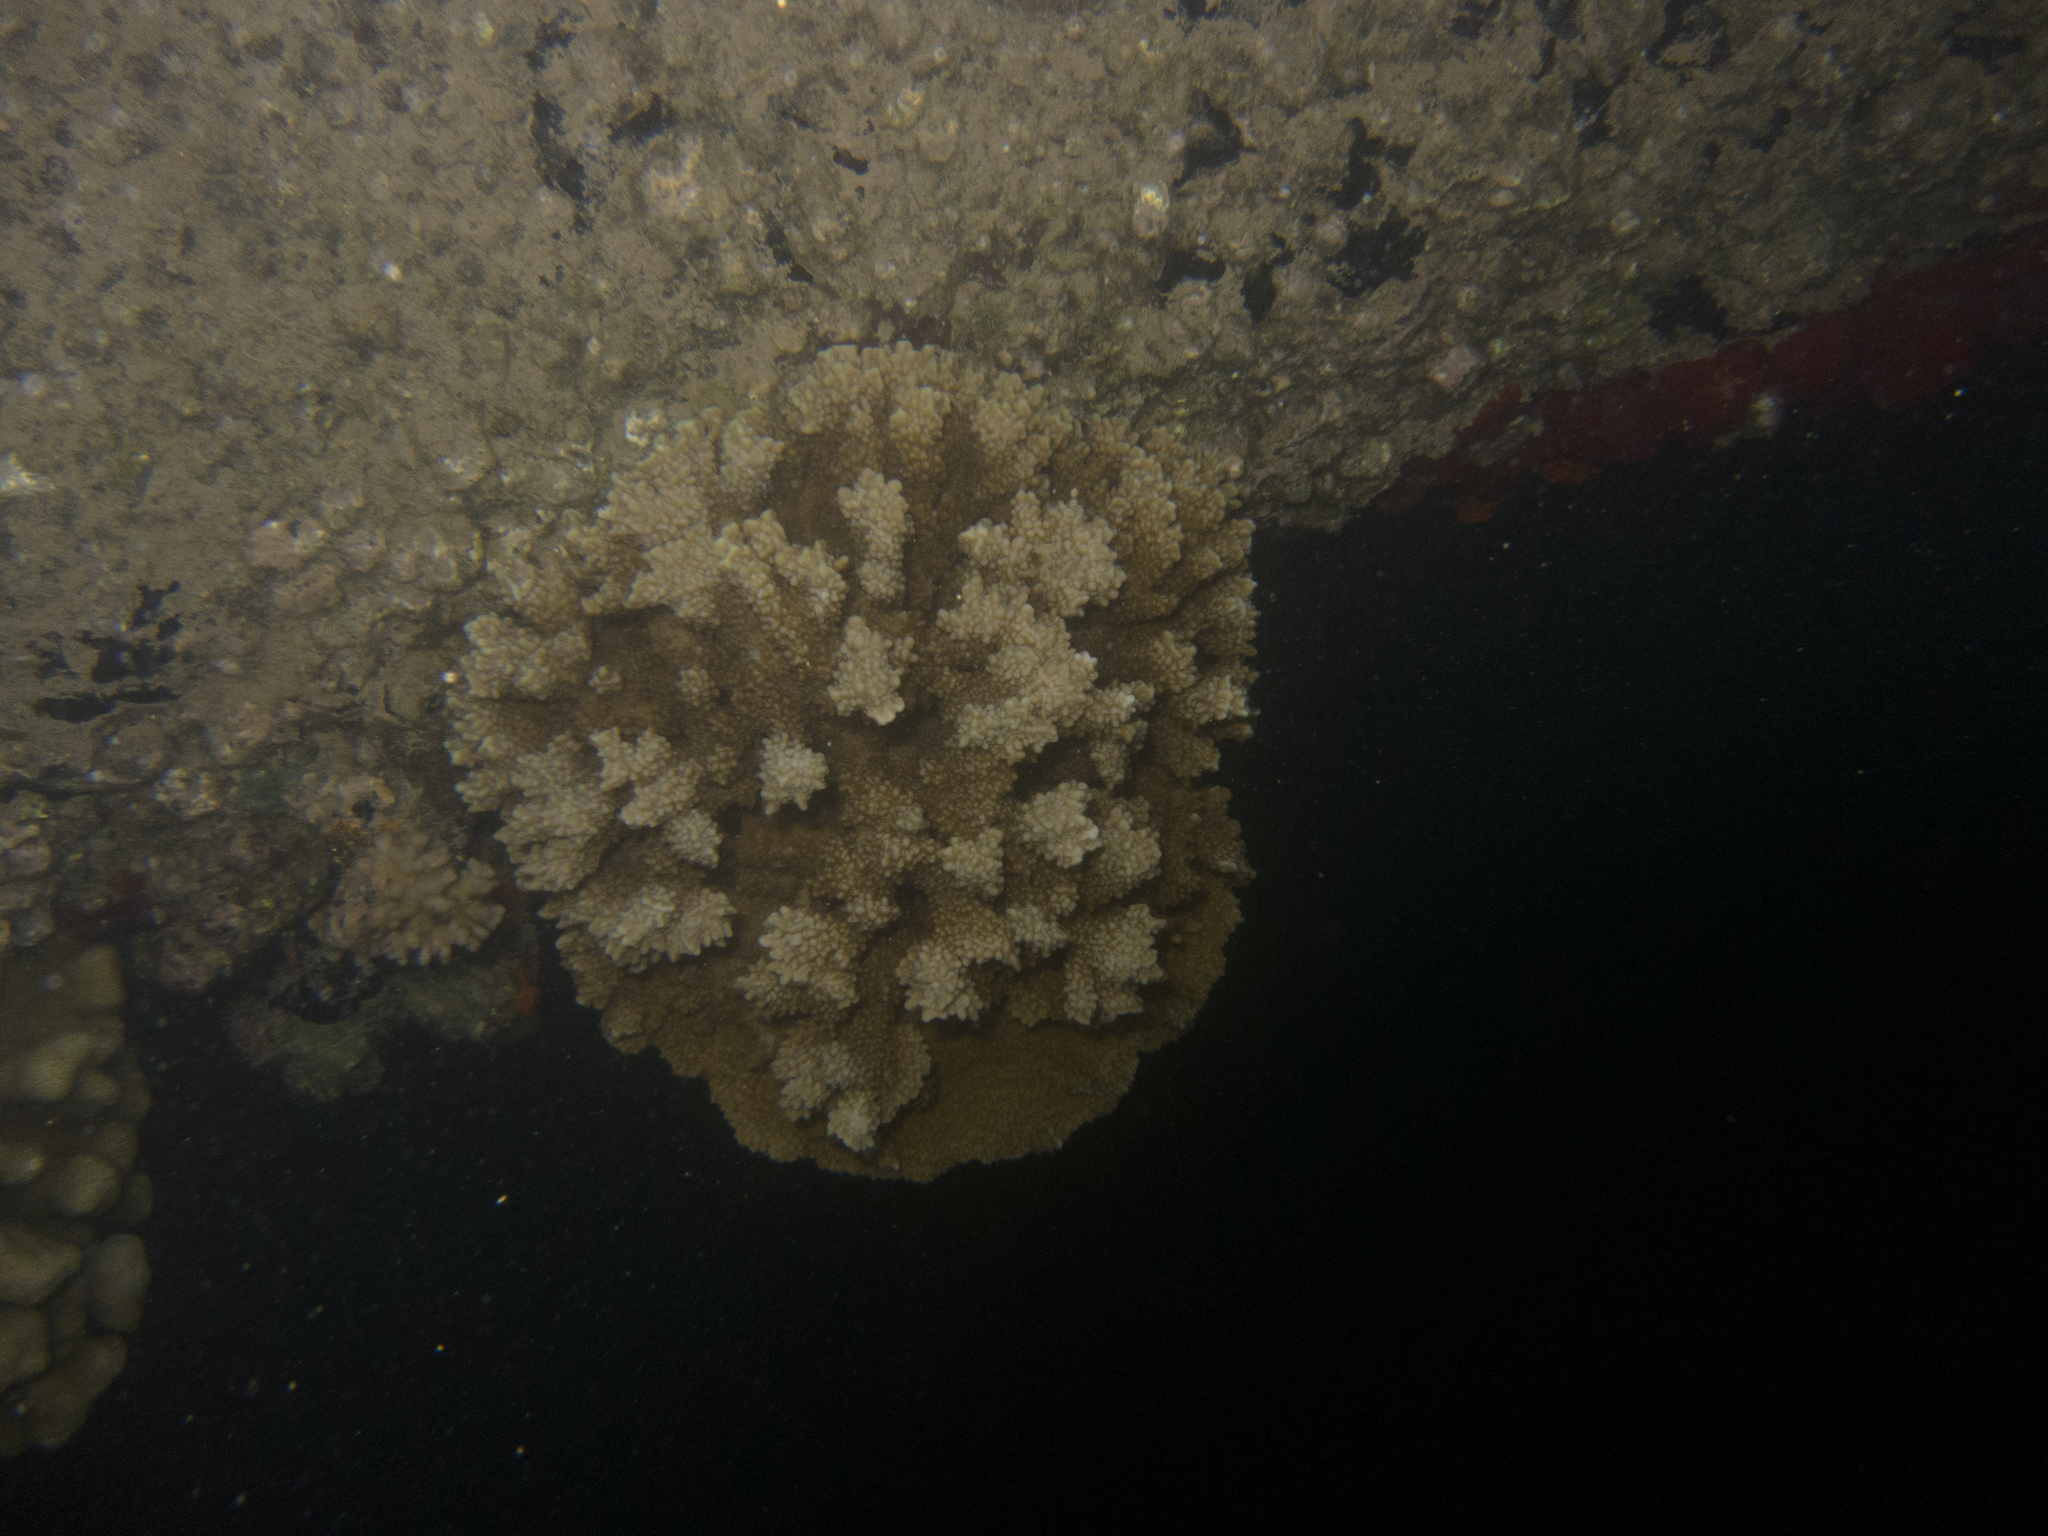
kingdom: Animalia
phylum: Cnidaria
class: Anthozoa
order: Scleractinia
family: Acroporidae
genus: Montipora
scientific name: Montipora capitata
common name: Pore coral
